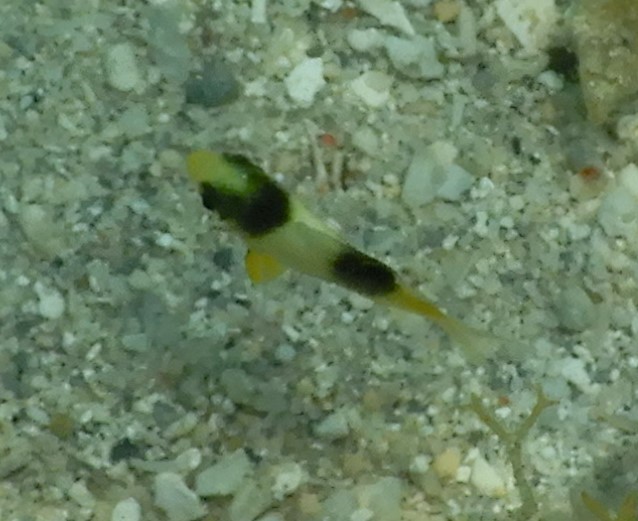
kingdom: Animalia
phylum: Chordata
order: Perciformes
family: Serranidae
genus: Diploprion
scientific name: Diploprion bifasciatum
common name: Barred soapfish
